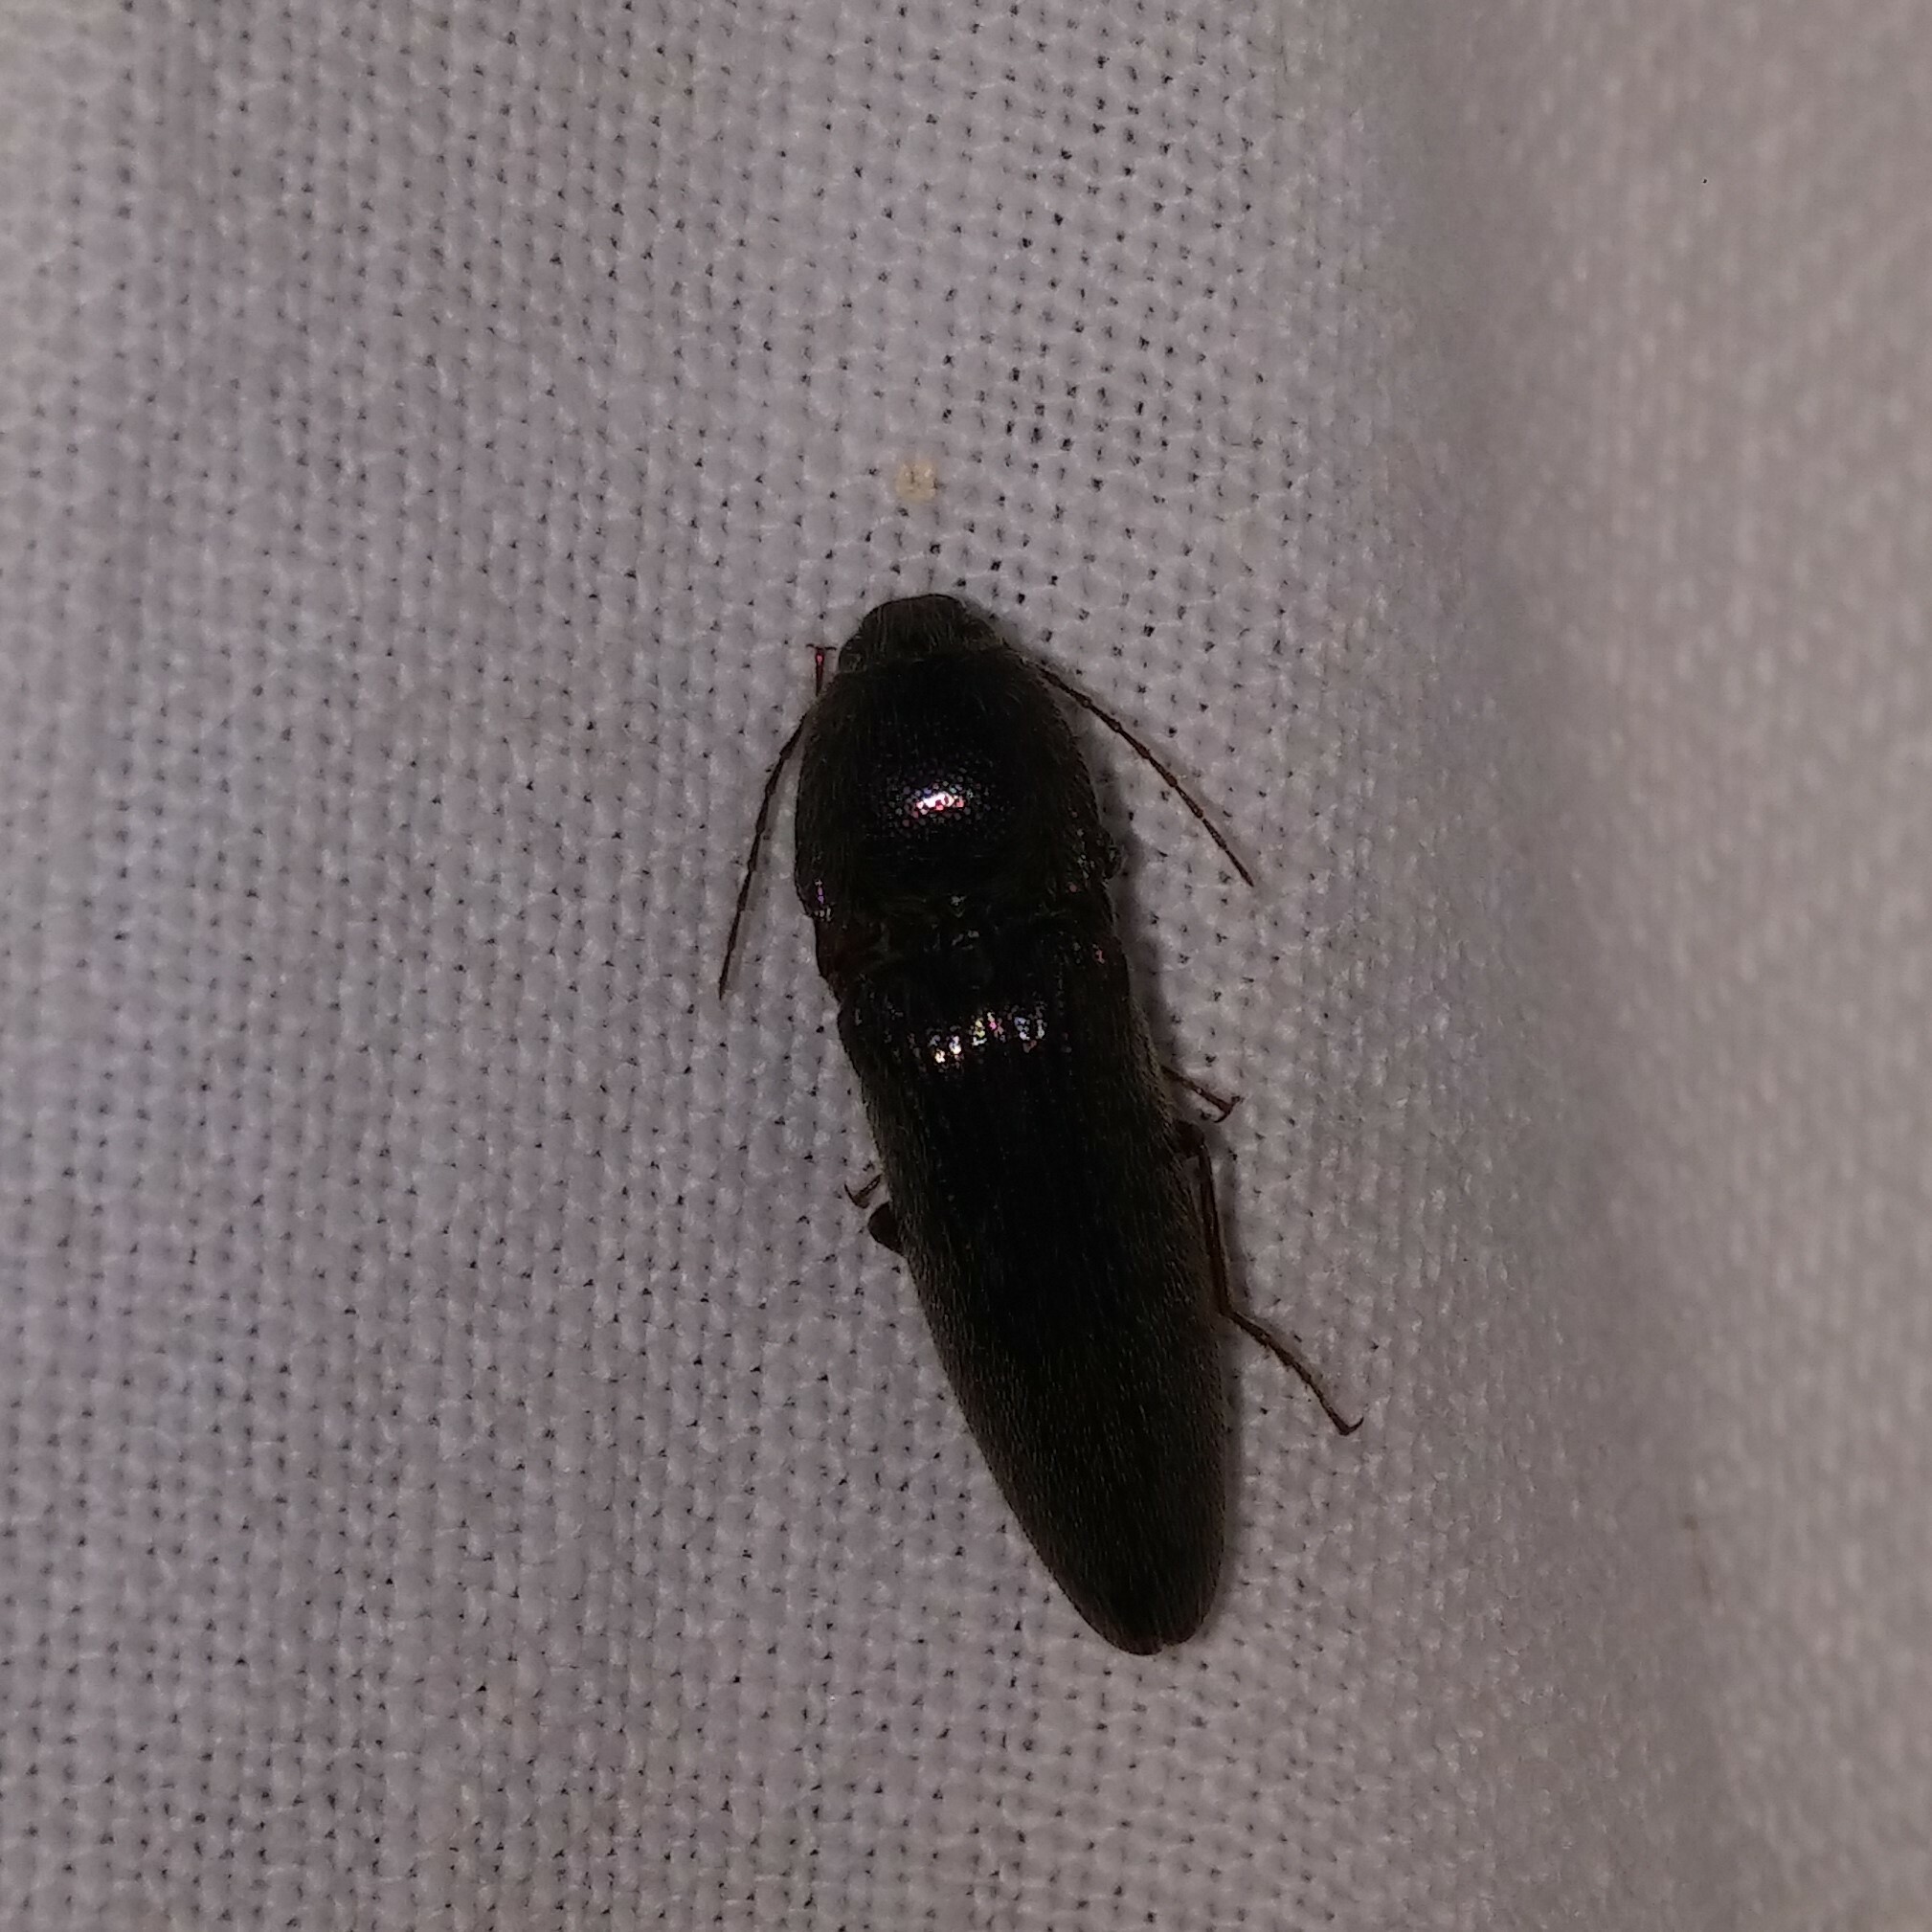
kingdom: Animalia
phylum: Arthropoda
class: Insecta
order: Coleoptera
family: Elateridae
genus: Melanotus
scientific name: Melanotus
